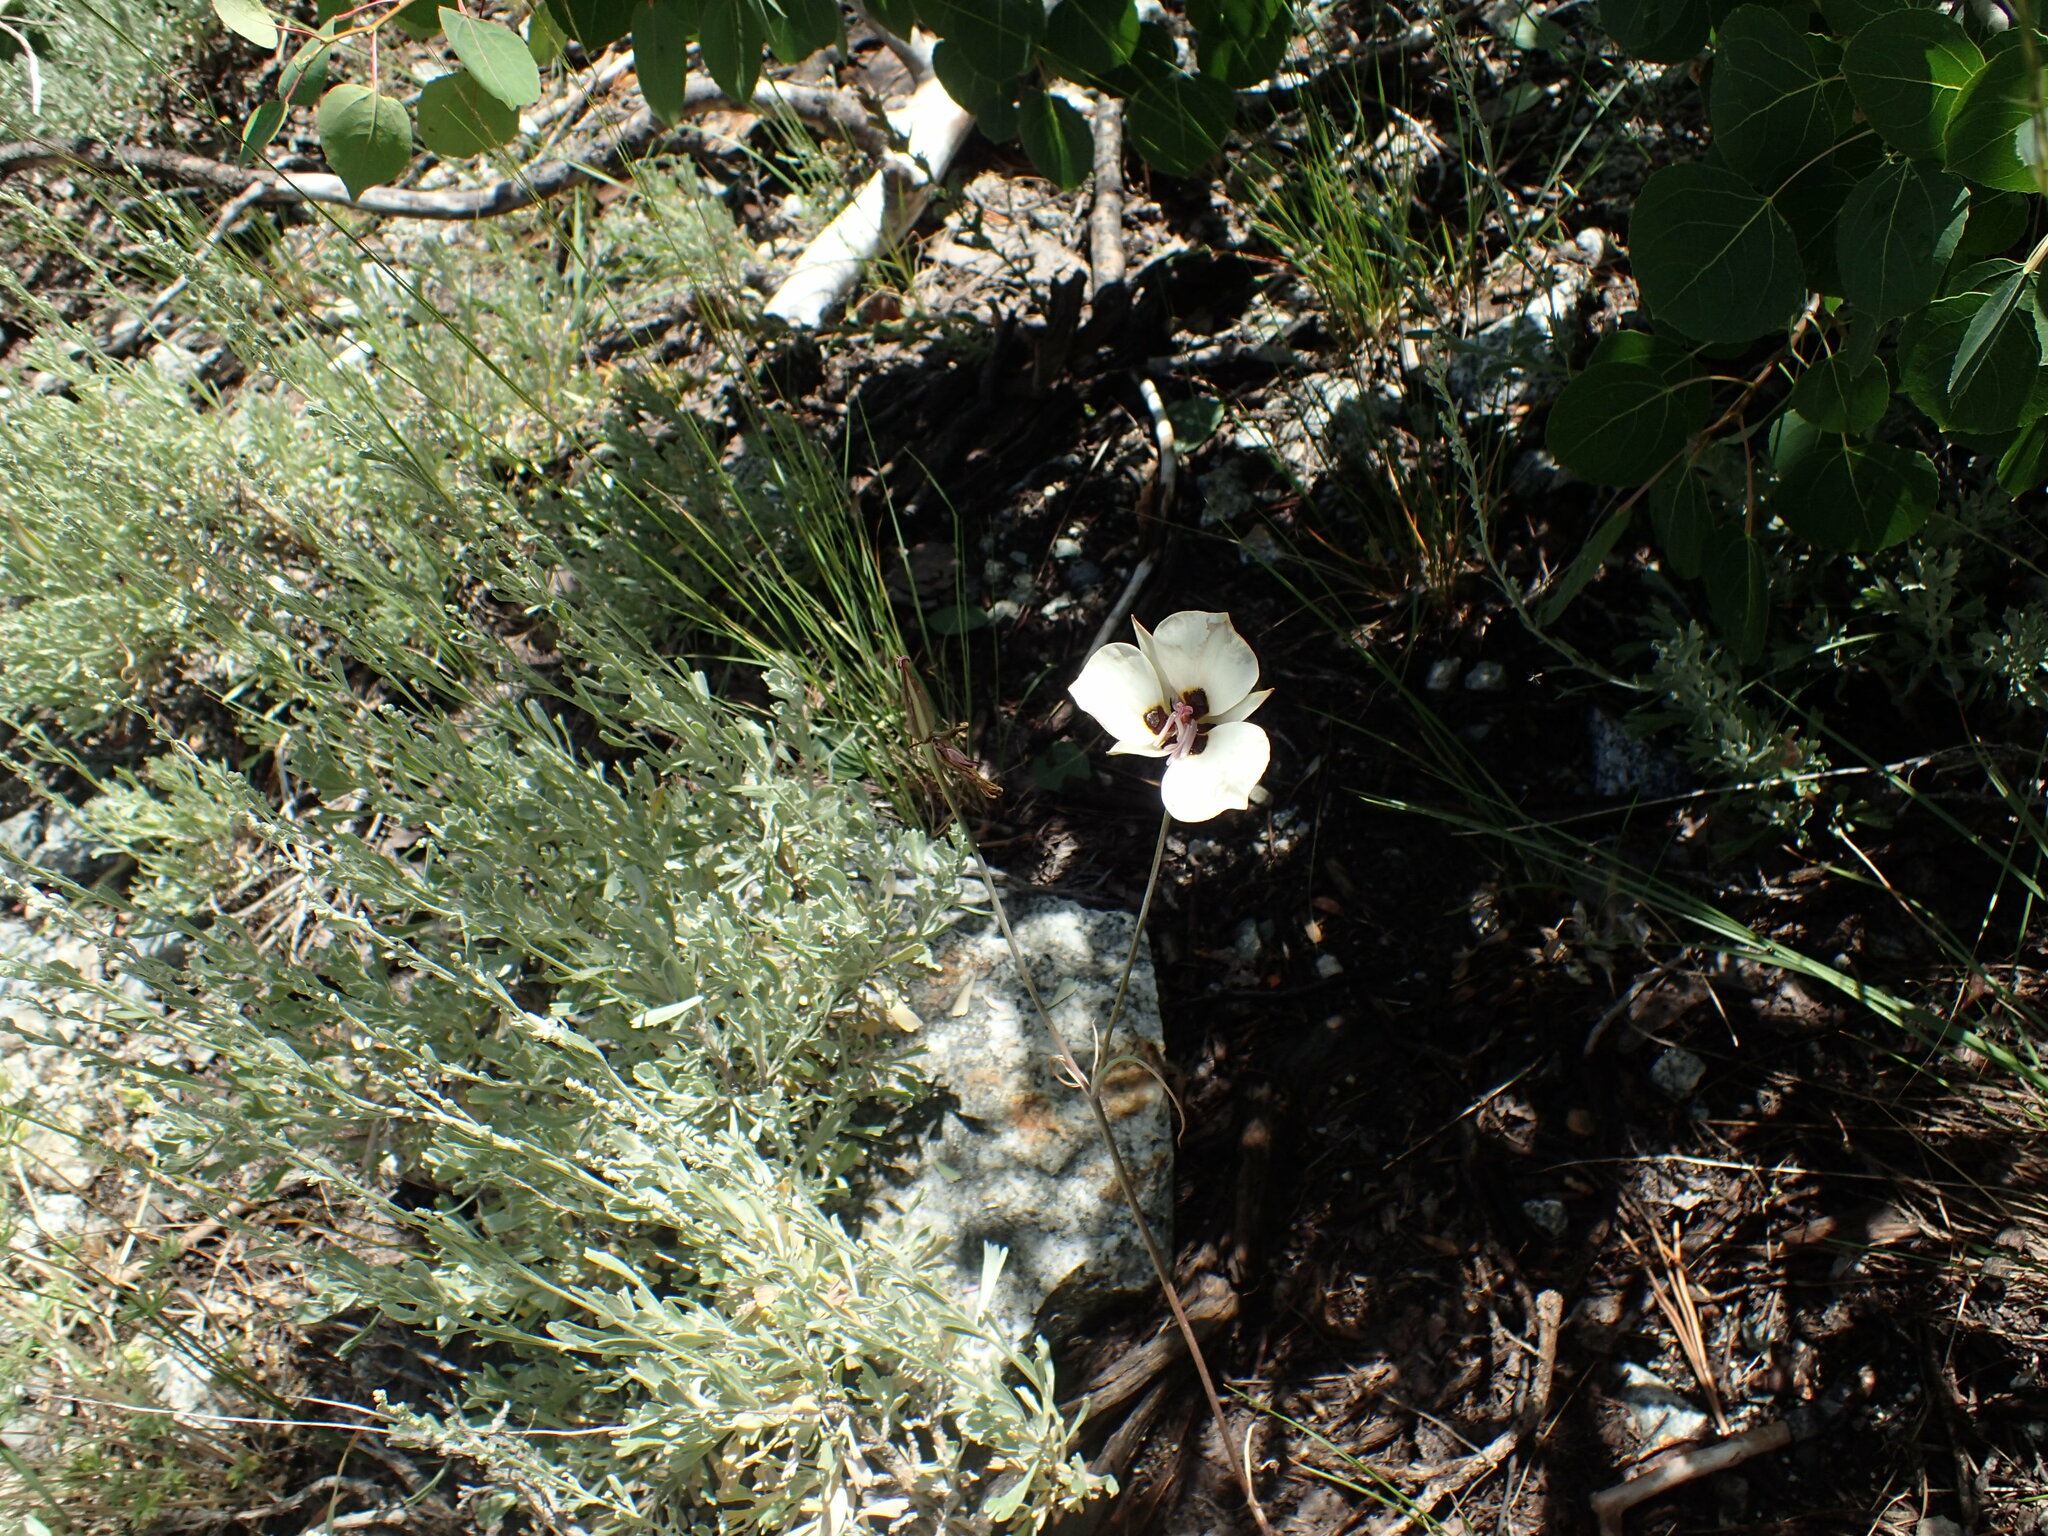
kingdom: Plantae
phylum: Tracheophyta
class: Liliopsida
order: Liliales
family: Liliaceae
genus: Calochortus
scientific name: Calochortus bruneaunis
